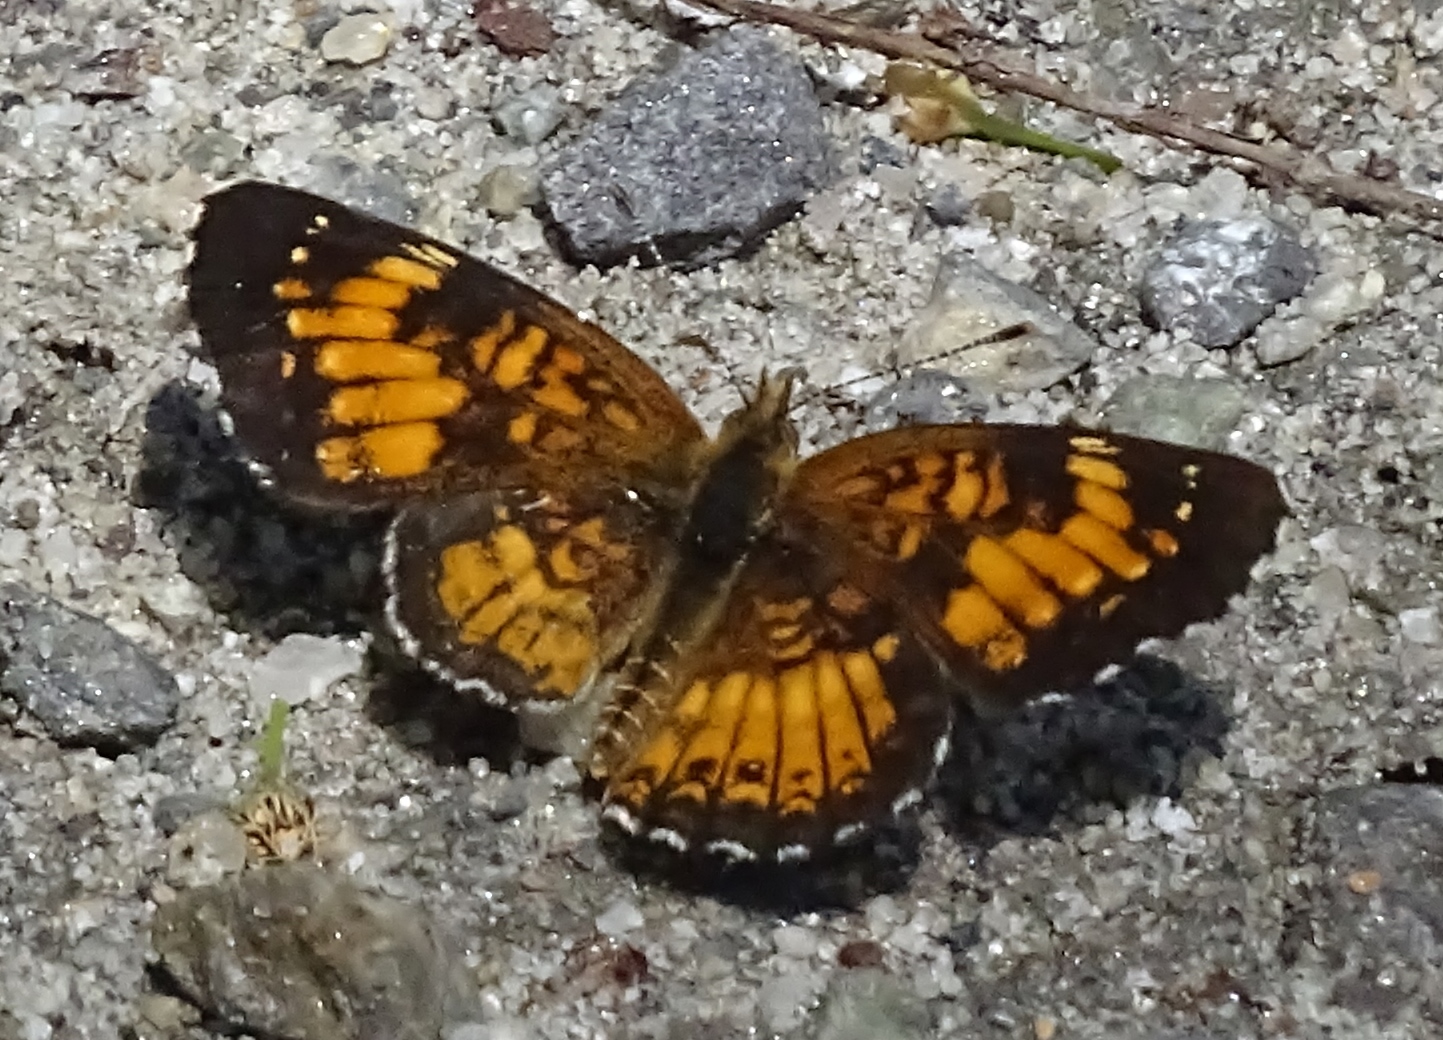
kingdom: Animalia
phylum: Arthropoda
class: Insecta
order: Lepidoptera
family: Nymphalidae
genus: Chlosyne
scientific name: Chlosyne harrisii
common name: Harris's checkerspot
